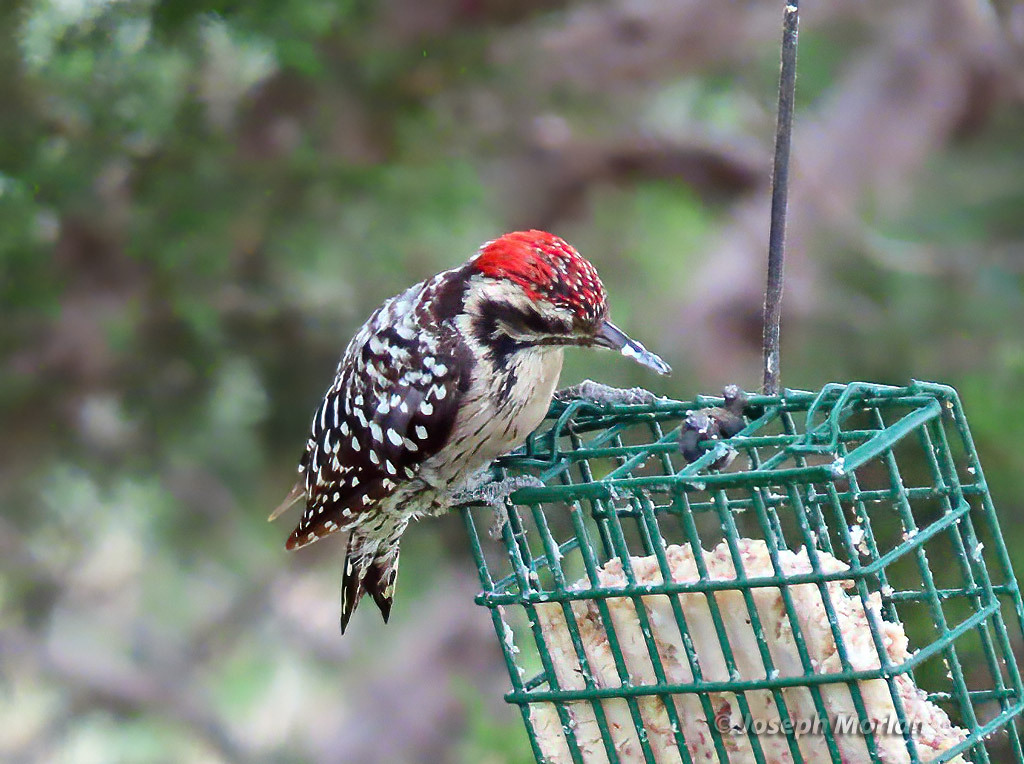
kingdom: Animalia
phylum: Chordata
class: Aves
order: Piciformes
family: Picidae
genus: Dryobates
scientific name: Dryobates scalaris
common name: Ladder-backed woodpecker
